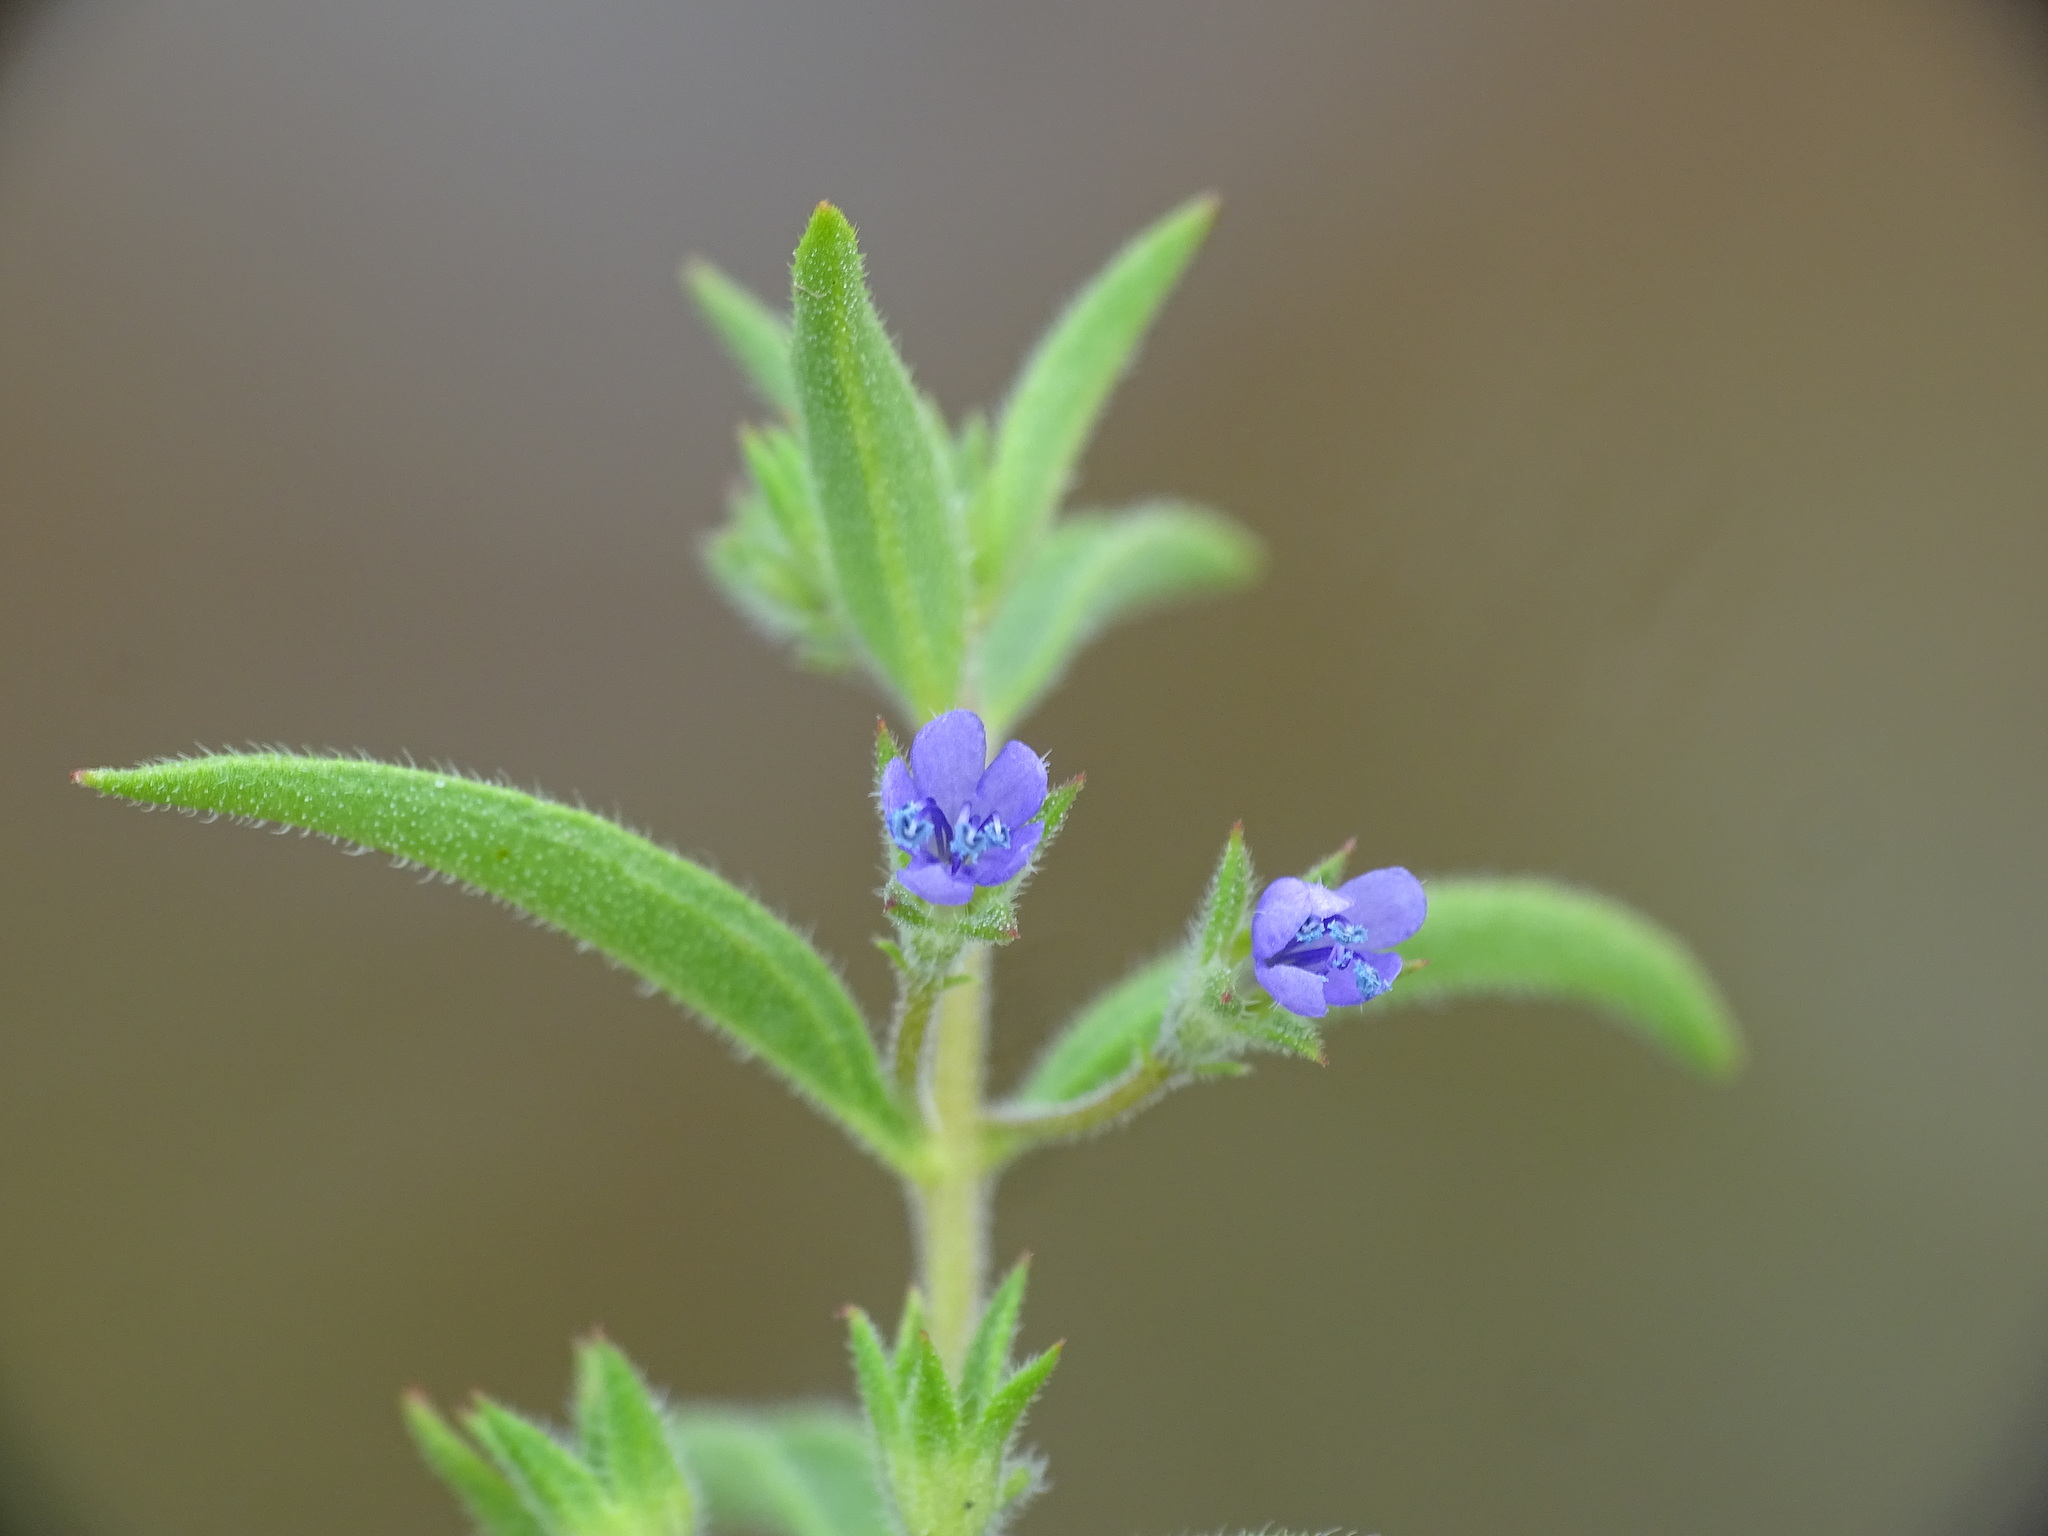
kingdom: Plantae
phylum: Tracheophyta
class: Magnoliopsida
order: Lamiales
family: Lamiaceae
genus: Trichostema
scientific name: Trichostema brachiatum
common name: False pennyroyal
